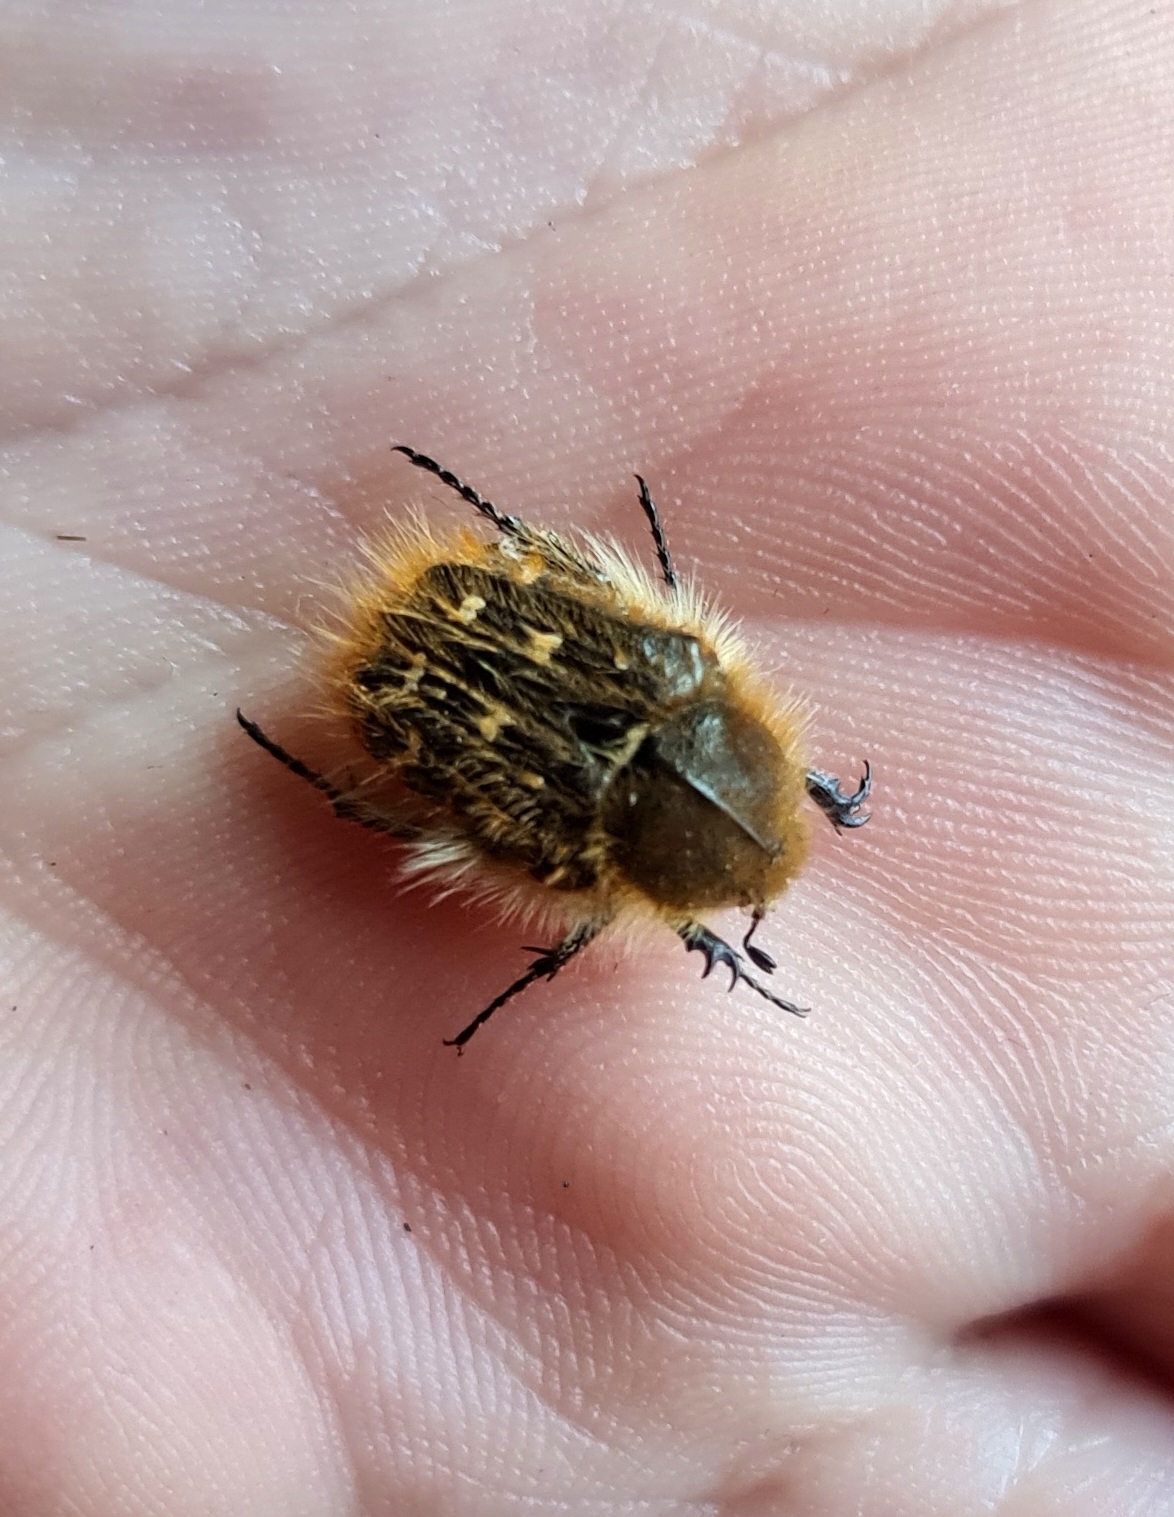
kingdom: Animalia
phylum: Arthropoda
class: Insecta
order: Coleoptera
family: Scarabaeidae
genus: Tropinota
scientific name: Tropinota squalida
